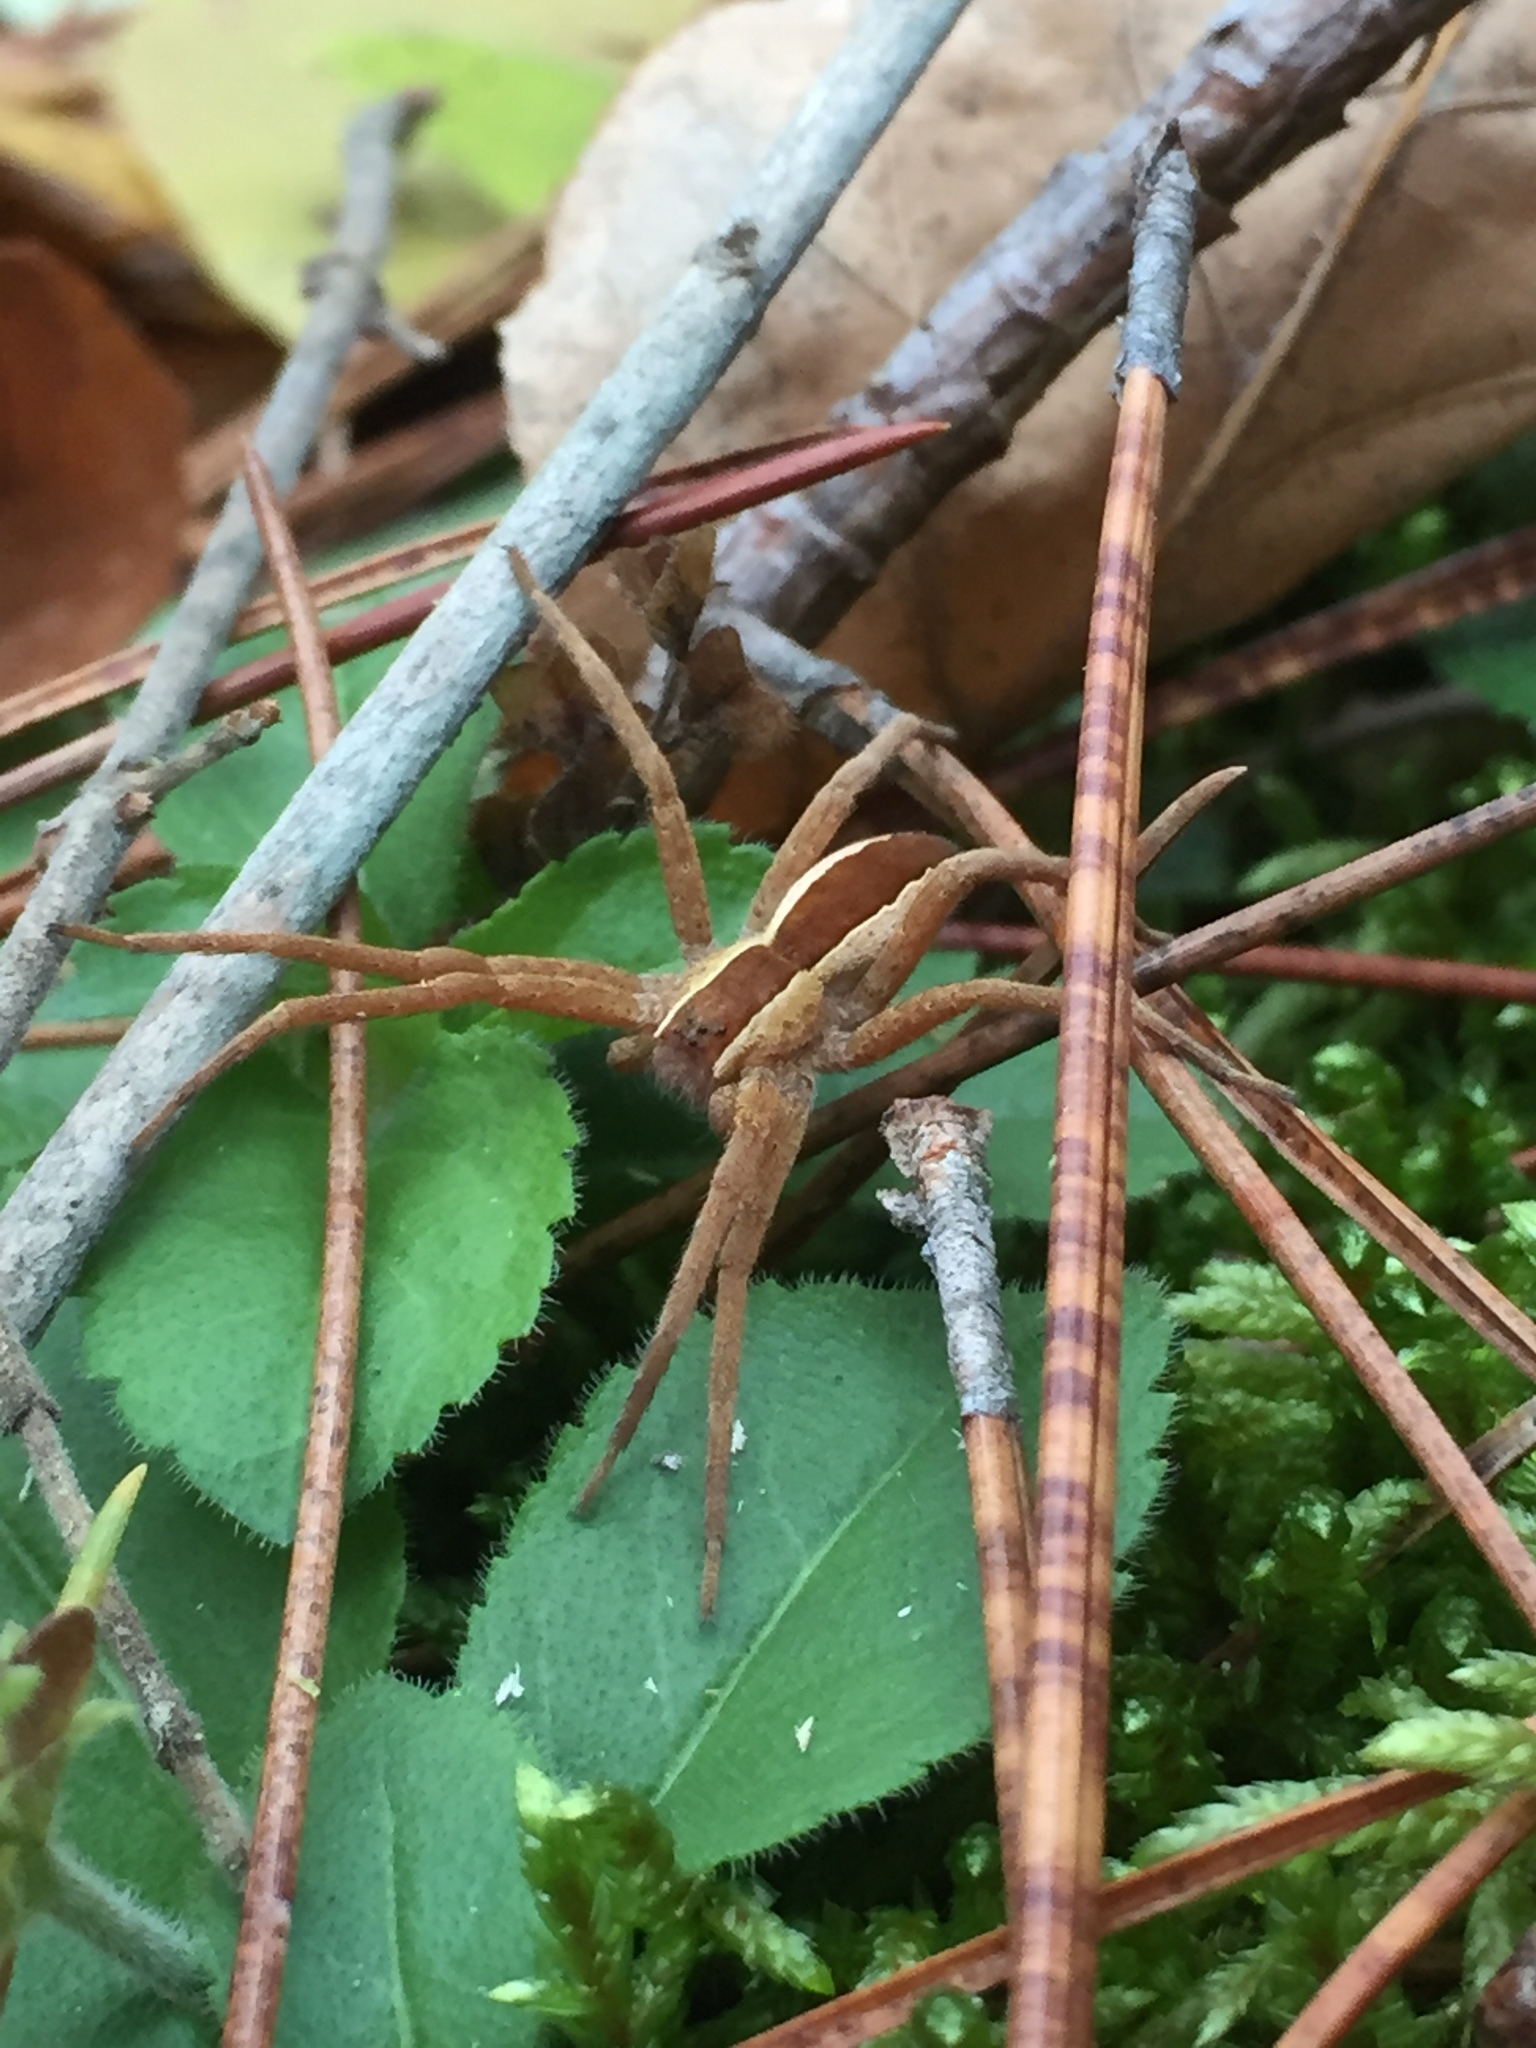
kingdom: Animalia
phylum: Arthropoda
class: Arachnida
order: Araneae
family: Pisauridae
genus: Pisaurina
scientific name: Pisaurina mira
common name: American nursery web spider
